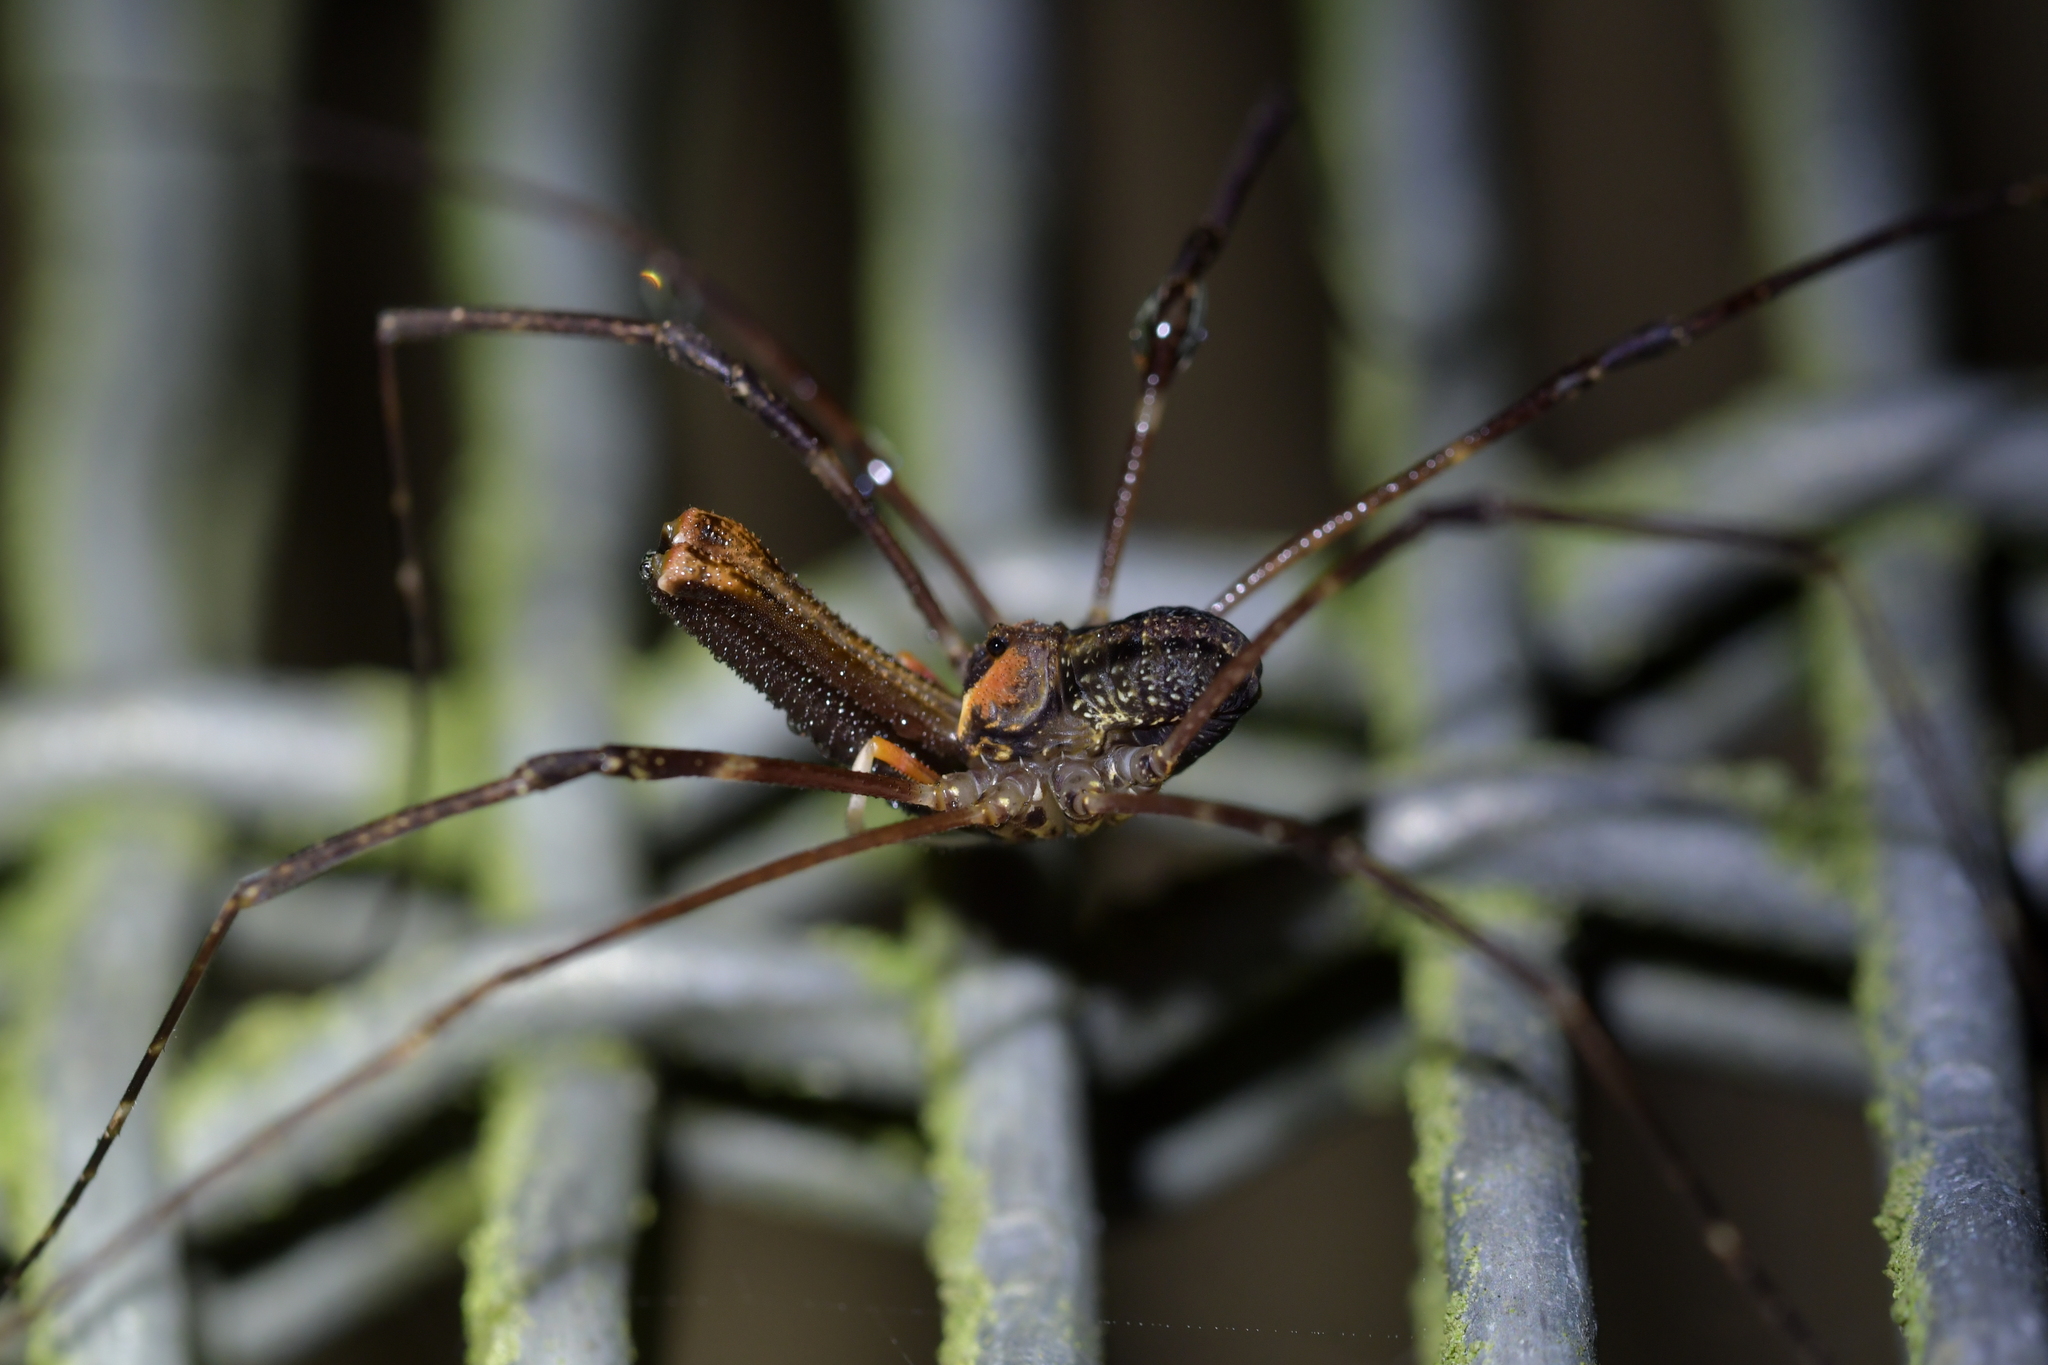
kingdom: Animalia
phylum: Arthropoda
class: Arachnida
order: Opiliones
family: Neopilionidae
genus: Forsteropsalis
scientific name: Forsteropsalis inconstans
